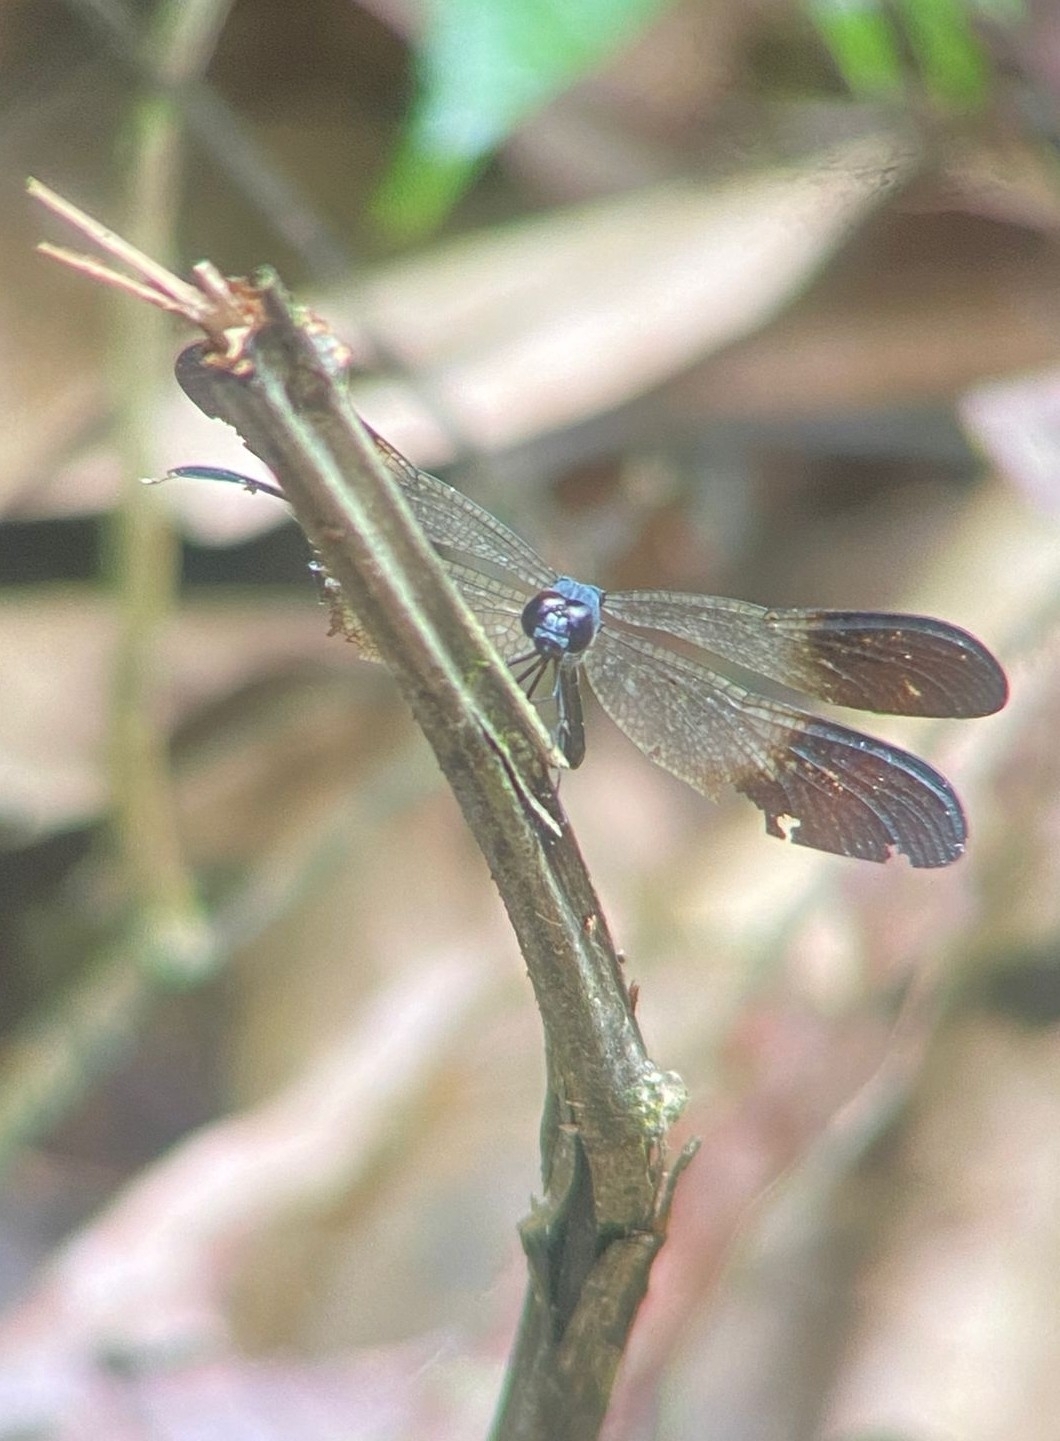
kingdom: Animalia
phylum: Arthropoda
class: Insecta
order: Odonata
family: Libellulidae
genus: Uracis
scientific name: Uracis fastigiata
